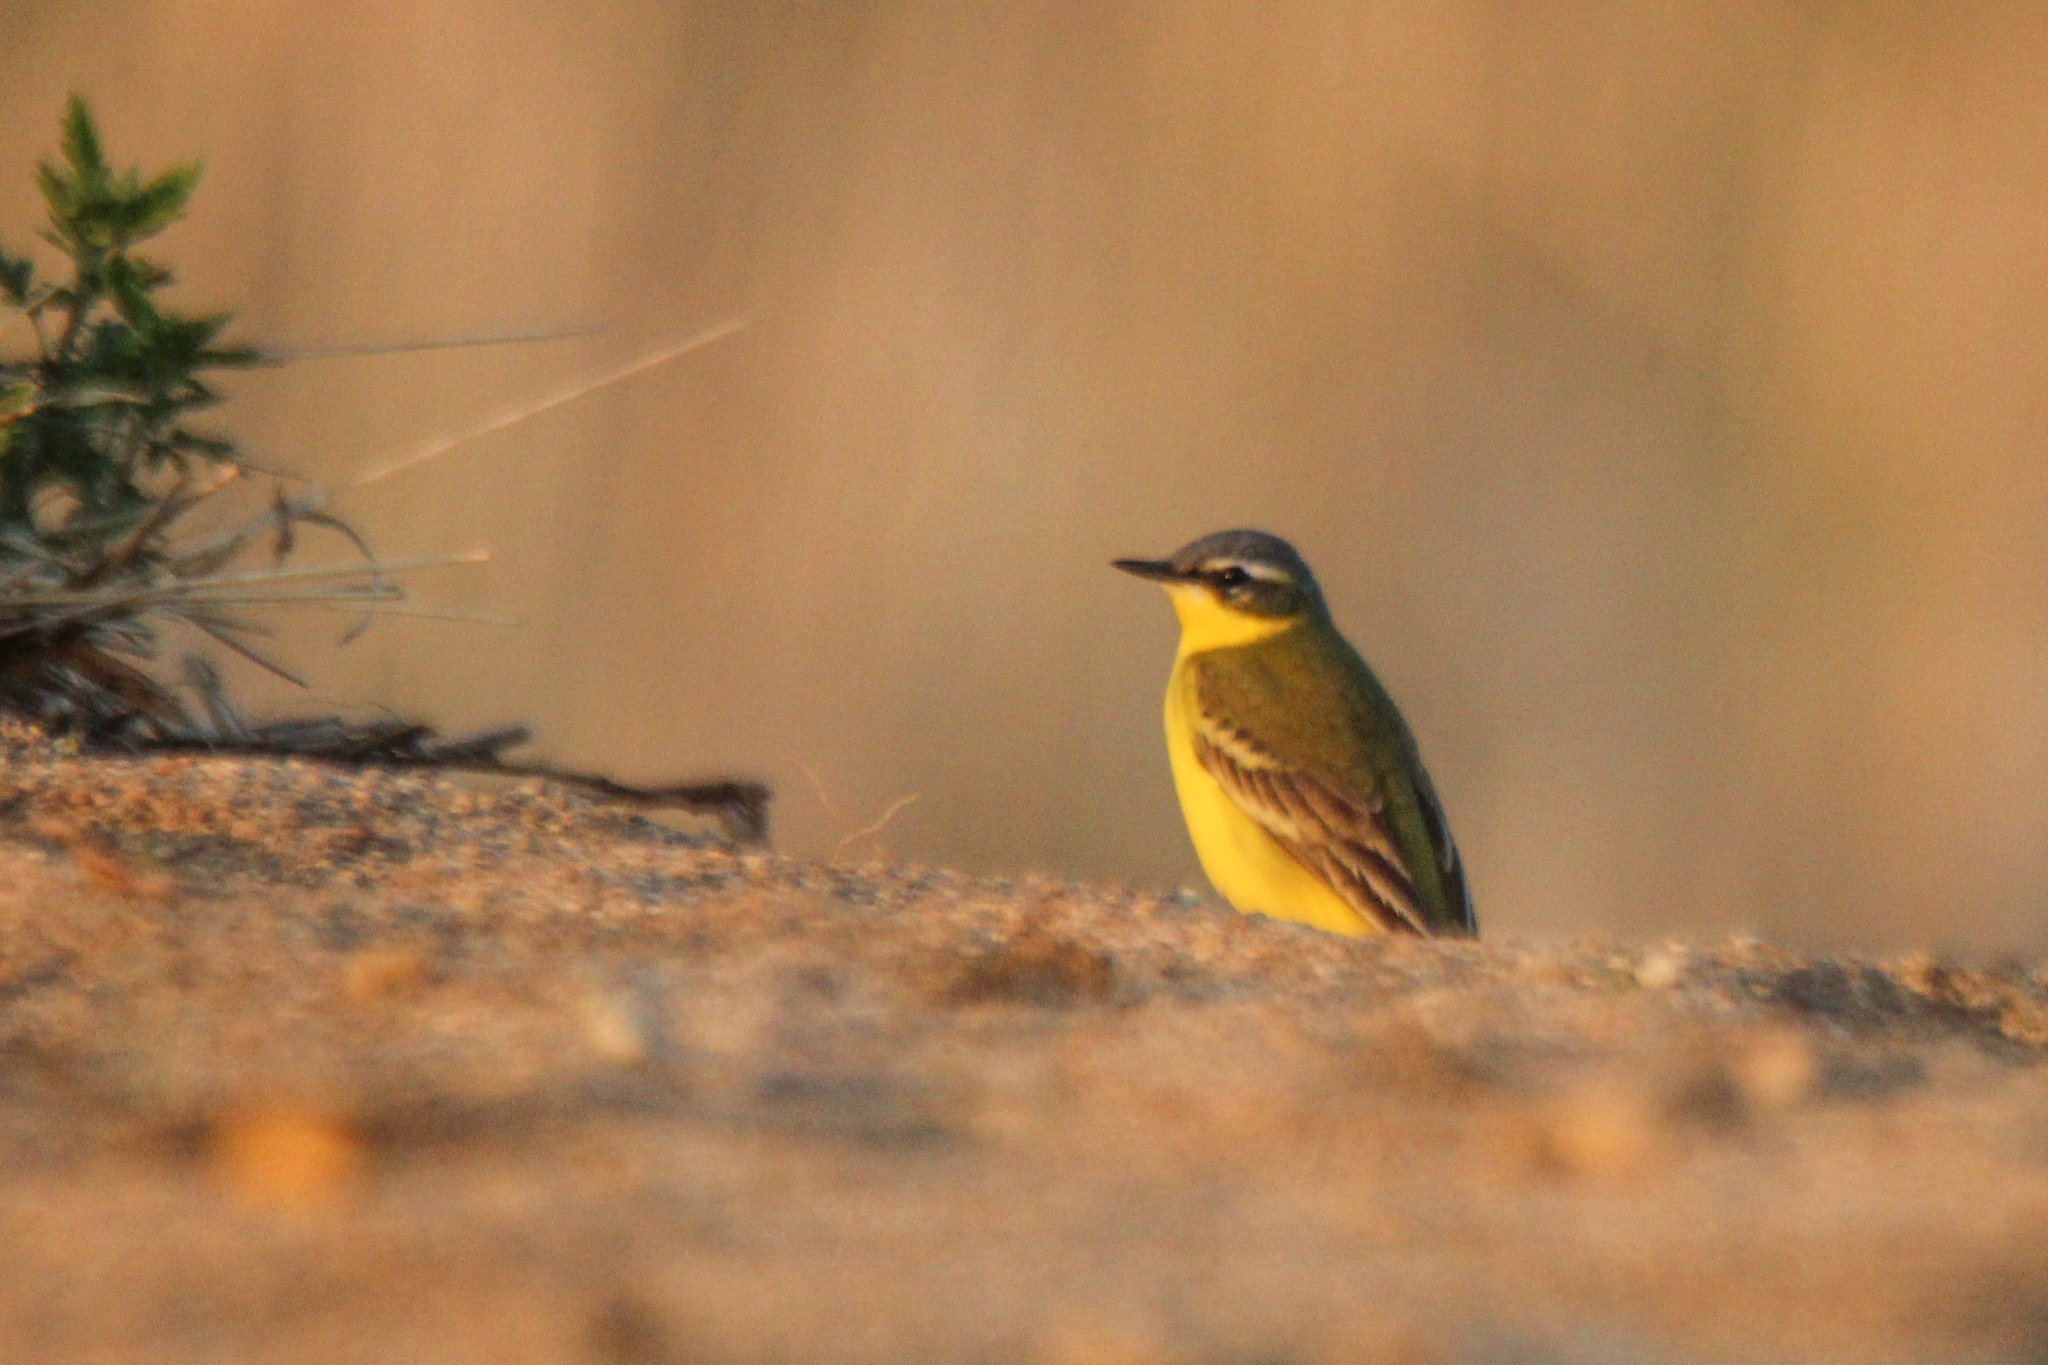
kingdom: Animalia
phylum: Chordata
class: Aves
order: Passeriformes
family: Motacillidae
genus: Motacilla
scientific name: Motacilla tschutschensis
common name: Eastern yellow wagtail
